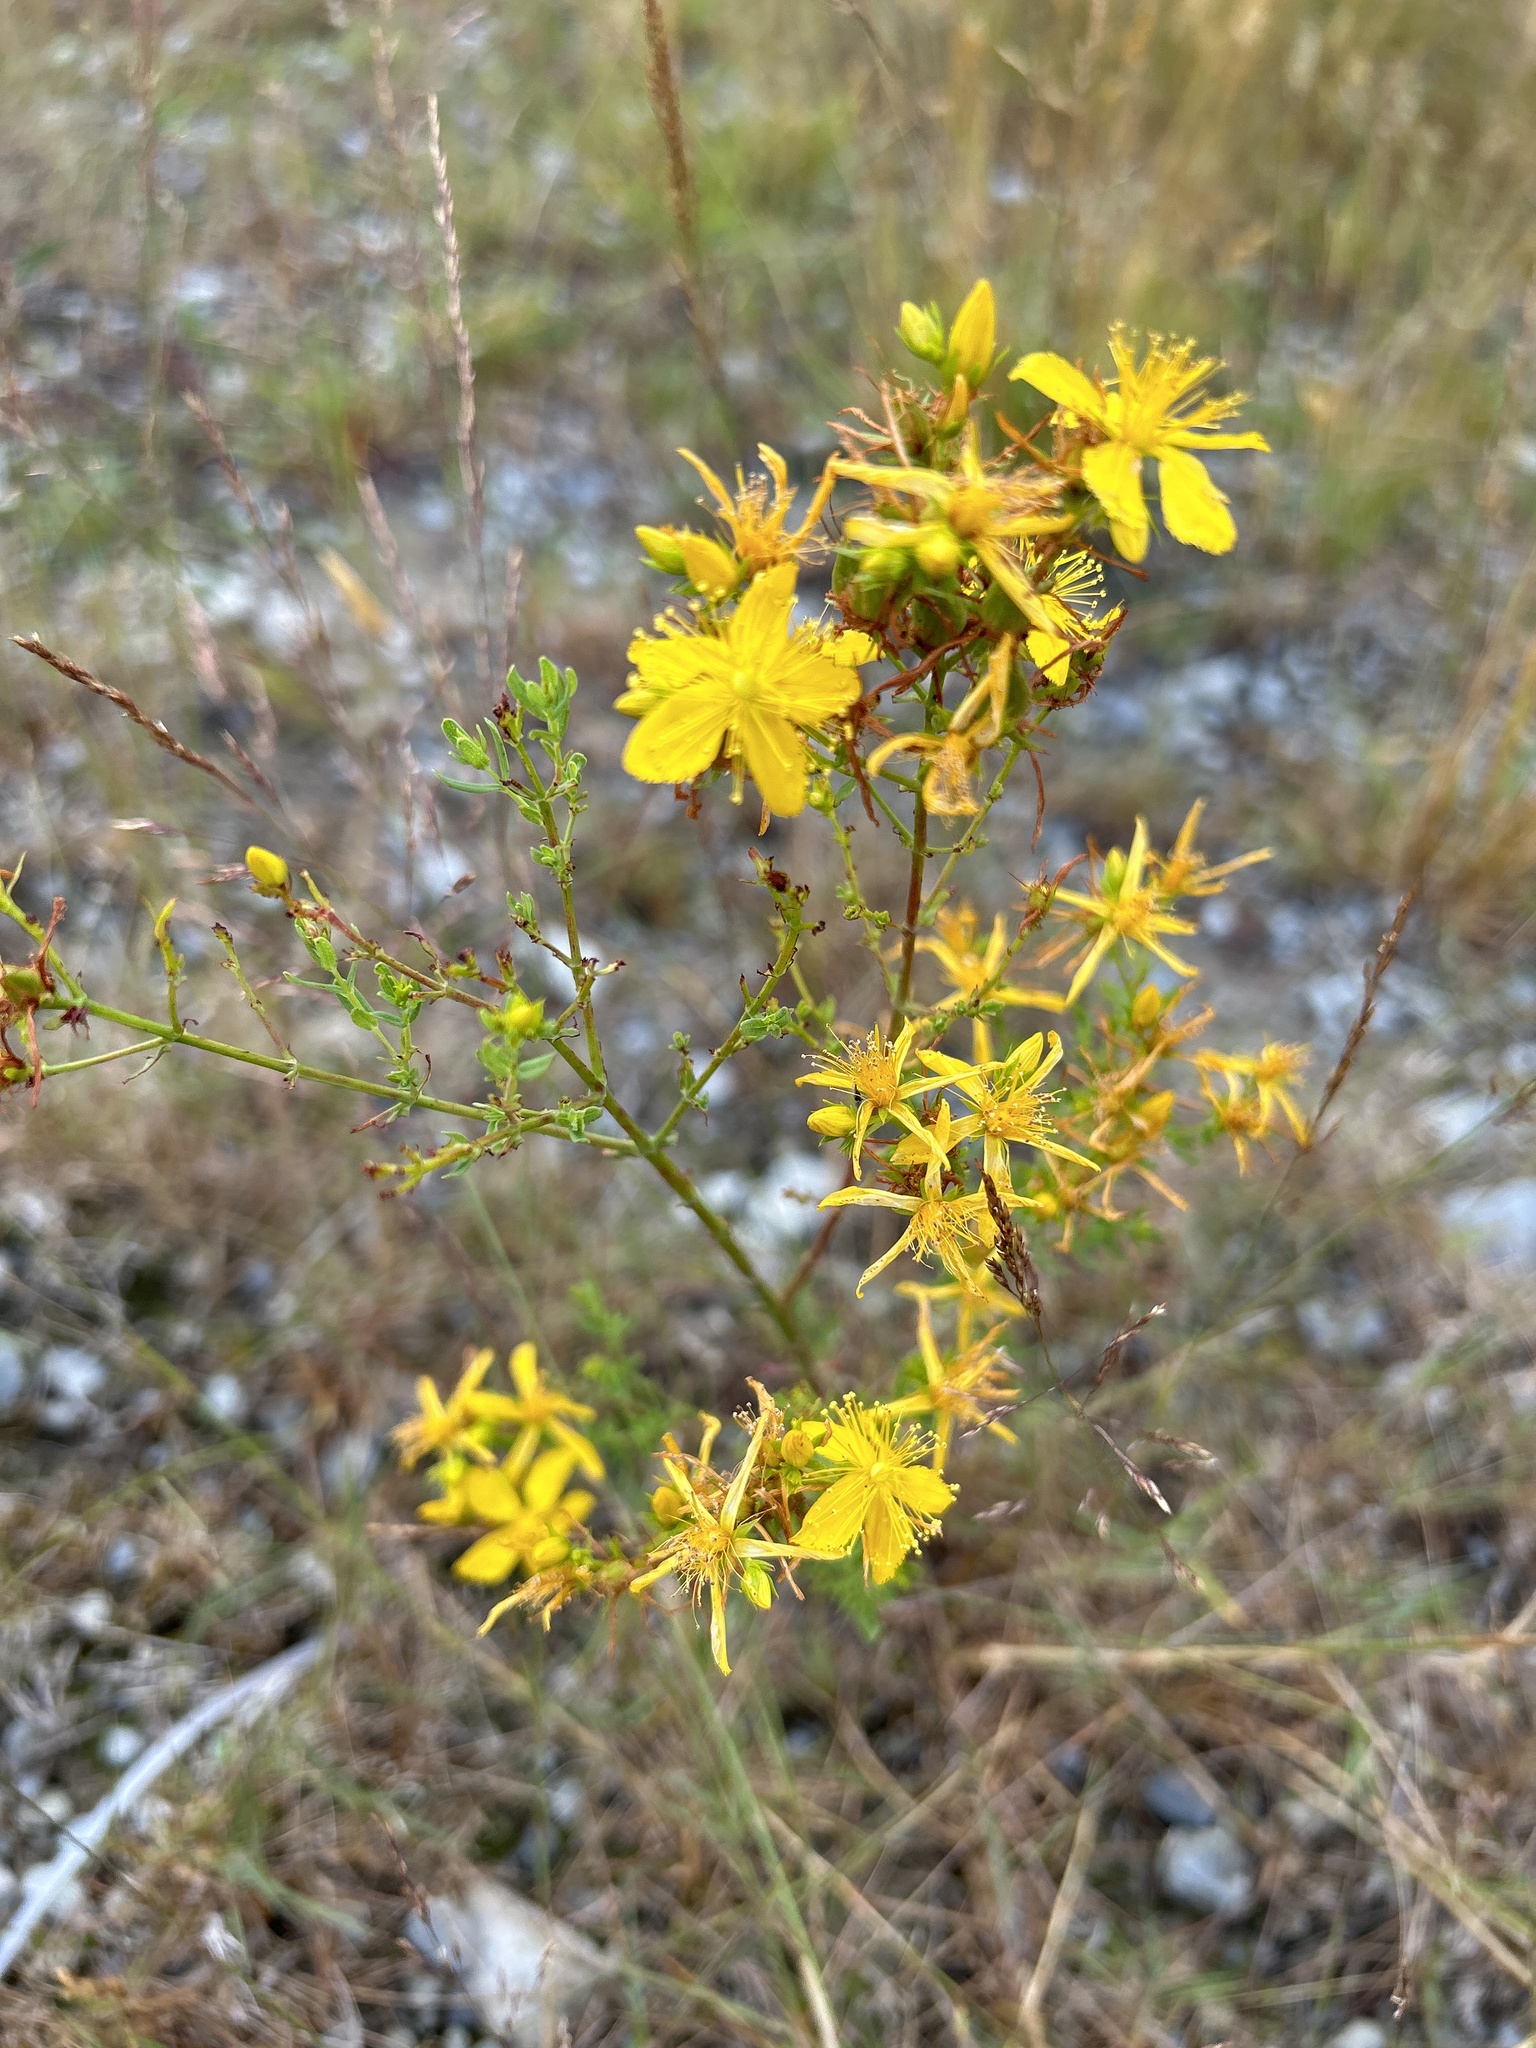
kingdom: Plantae
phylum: Tracheophyta
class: Magnoliopsida
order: Malpighiales
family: Hypericaceae
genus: Hypericum
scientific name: Hypericum perforatum
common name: Common st. johnswort
